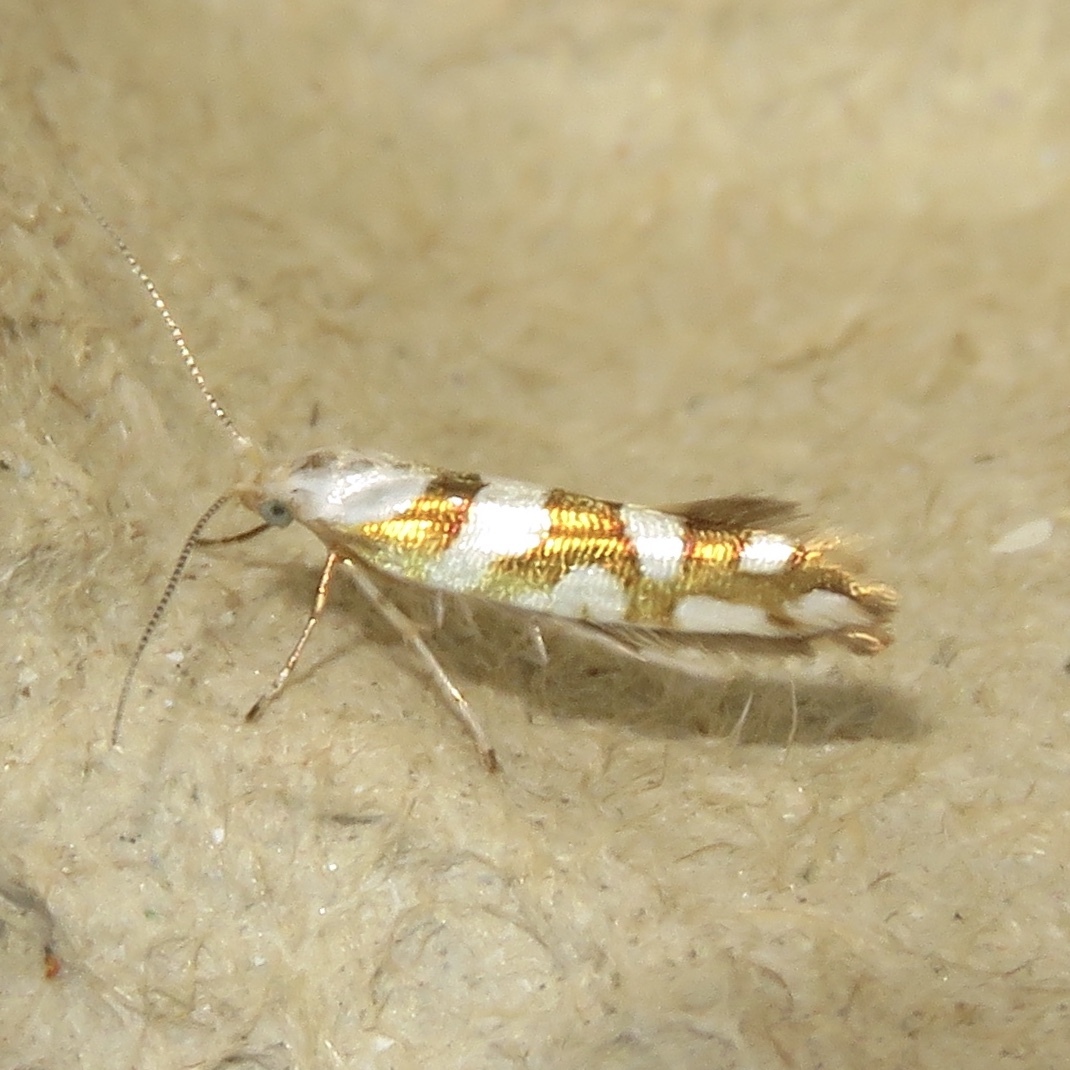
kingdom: Animalia
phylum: Arthropoda
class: Insecta
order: Lepidoptera
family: Argyresthiidae
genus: Argyresthia
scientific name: Argyresthia calliphanes
